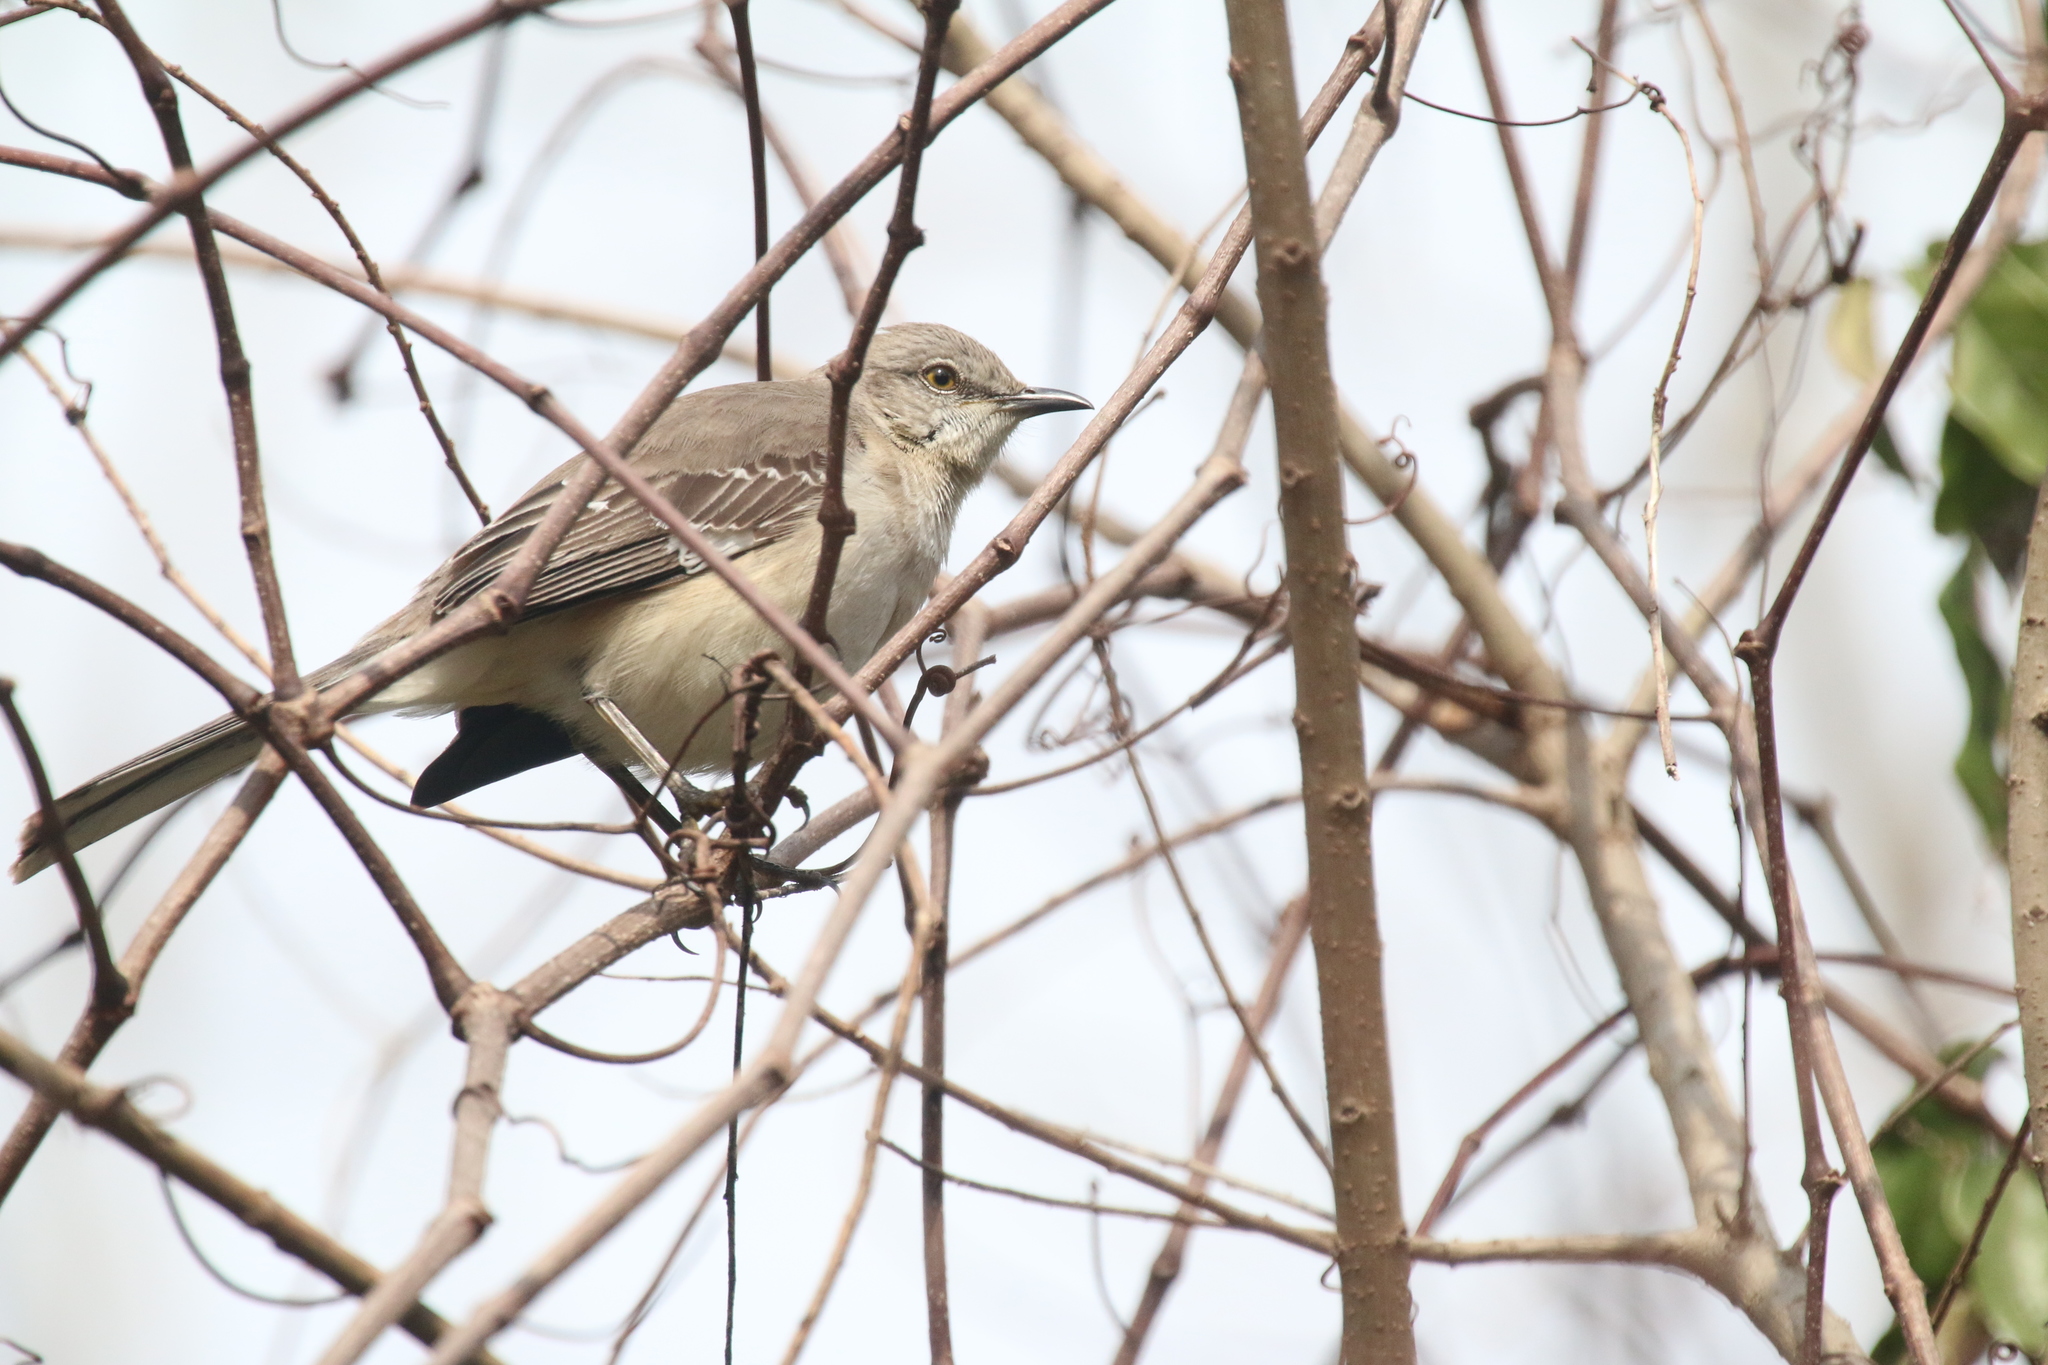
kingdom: Animalia
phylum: Chordata
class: Aves
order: Passeriformes
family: Mimidae
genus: Mimus
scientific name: Mimus polyglottos
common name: Northern mockingbird
